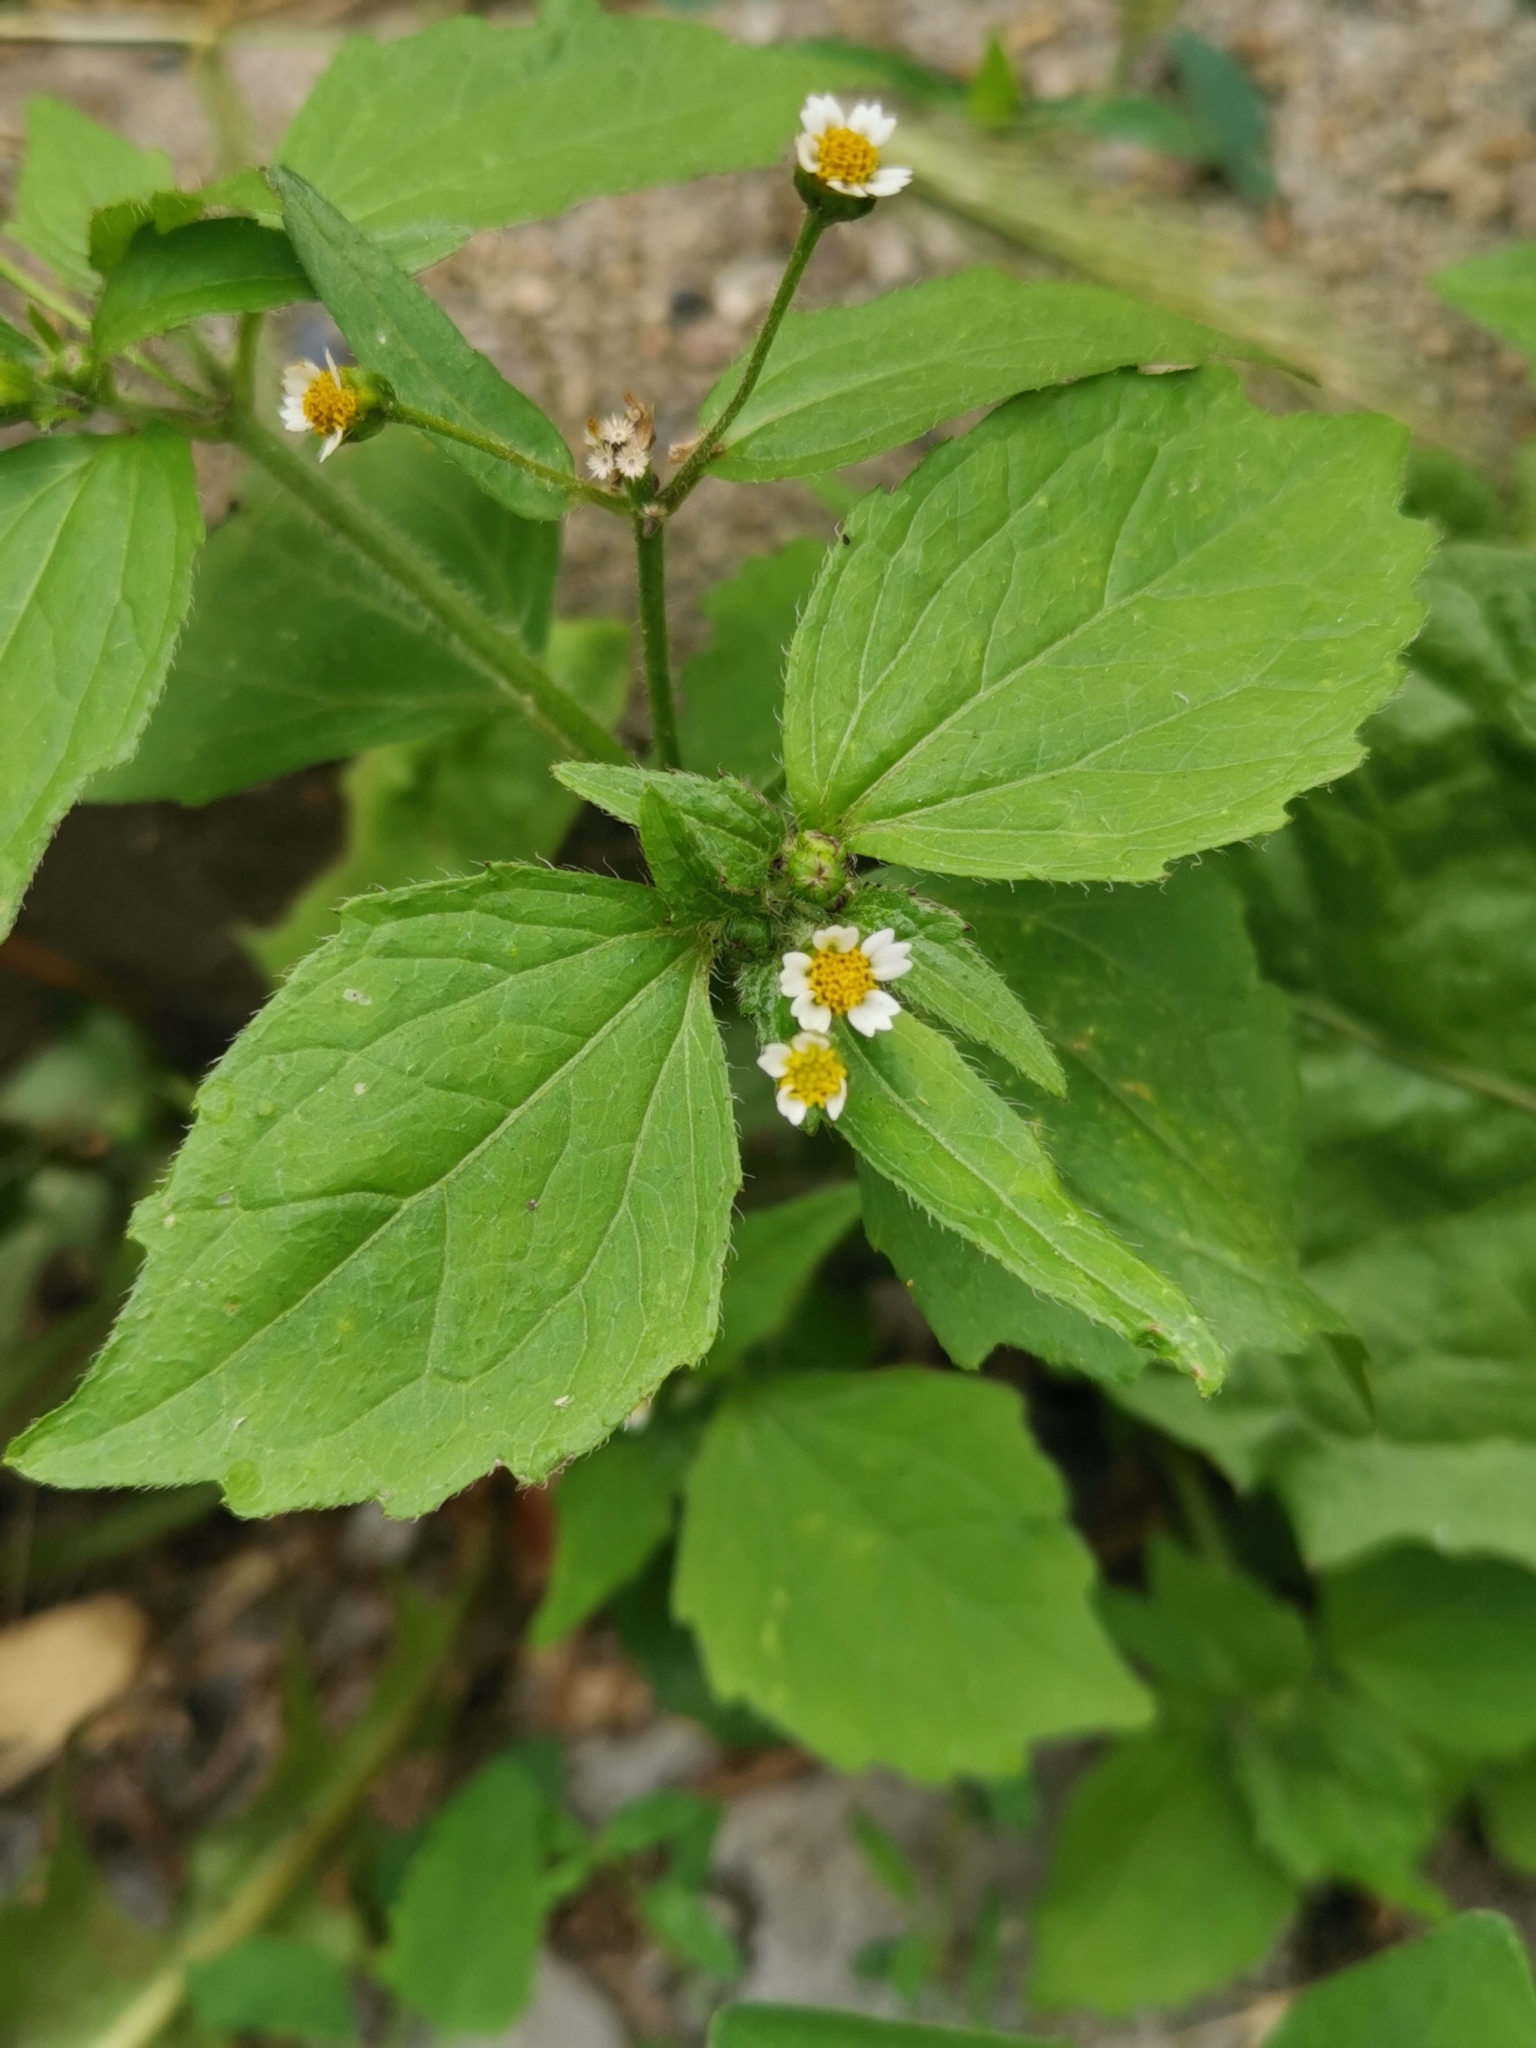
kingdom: Plantae
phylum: Tracheophyta
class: Magnoliopsida
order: Asterales
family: Asteraceae
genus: Galinsoga
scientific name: Galinsoga quadriradiata
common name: Shaggy soldier
